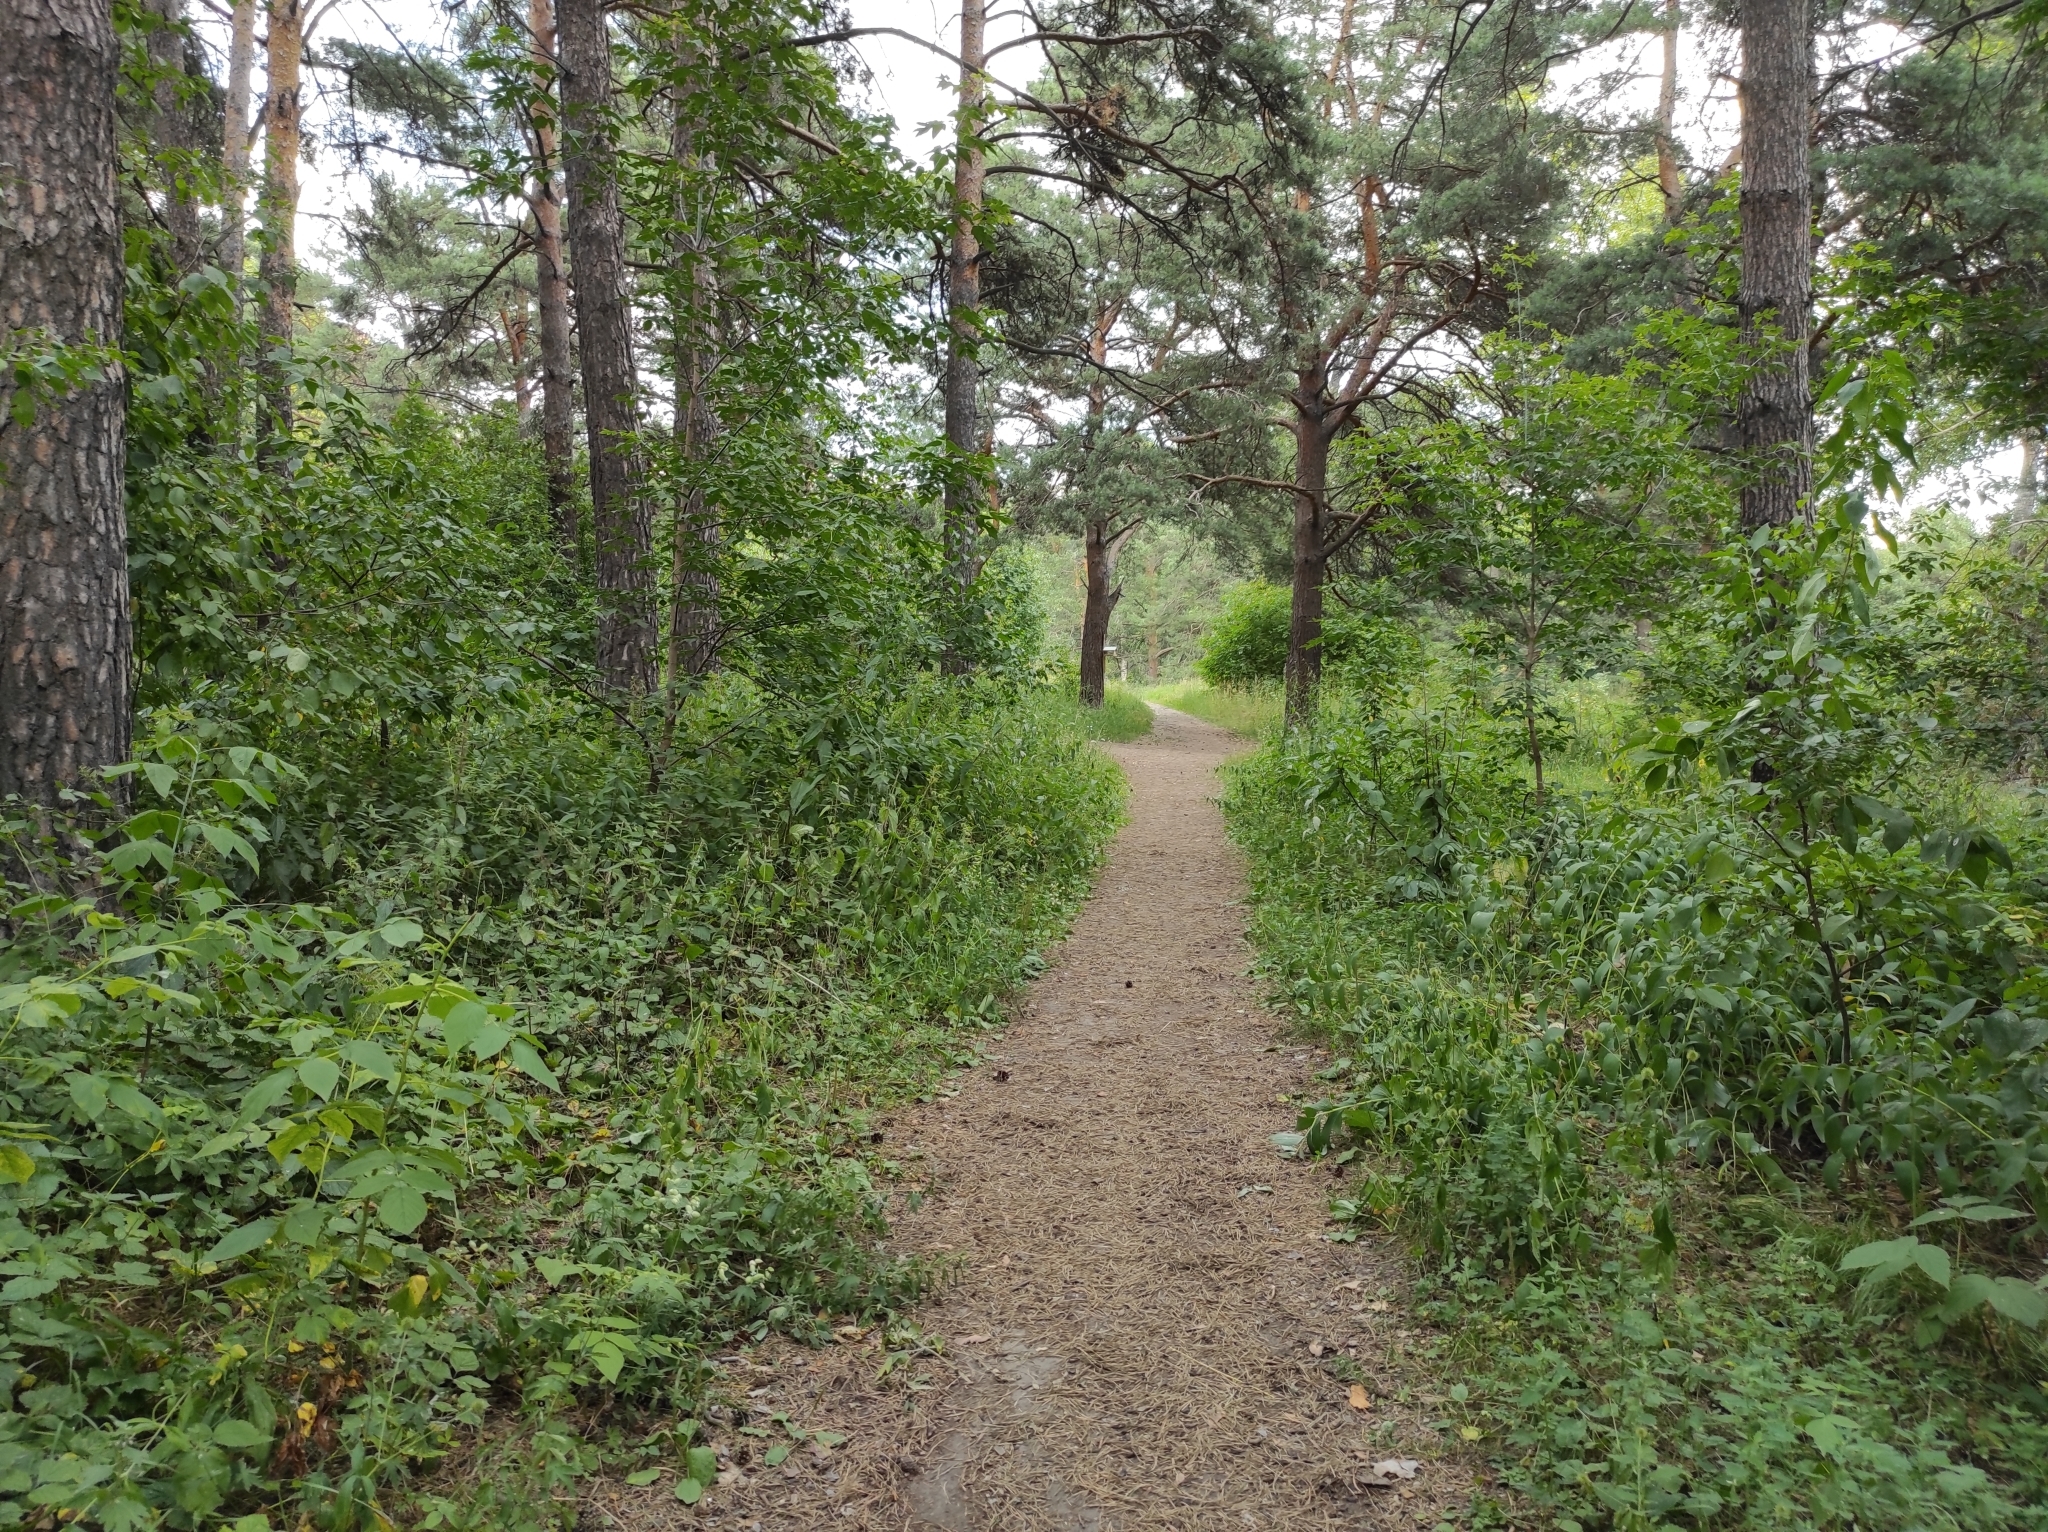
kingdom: Plantae
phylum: Tracheophyta
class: Pinopsida
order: Pinales
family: Pinaceae
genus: Pinus
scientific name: Pinus sylvestris
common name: Scots pine
